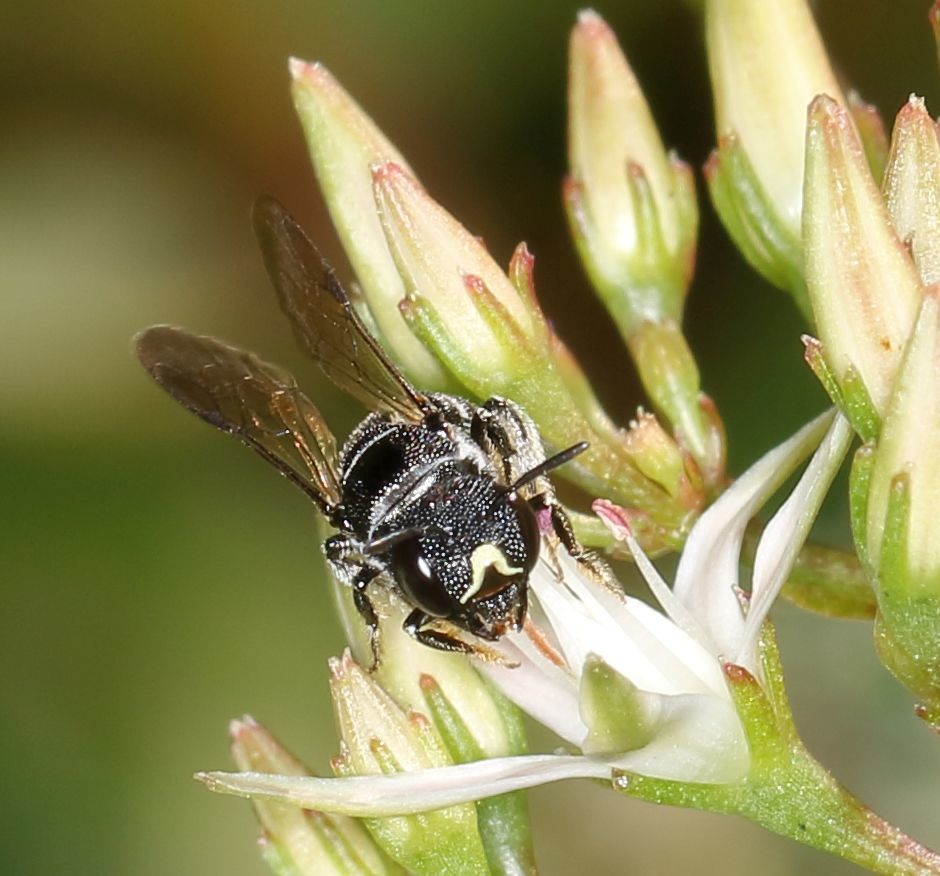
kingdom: Animalia
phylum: Arthropoda
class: Insecta
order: Hymenoptera
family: Apidae
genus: Ceratina
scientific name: Ceratina moerenhouti
